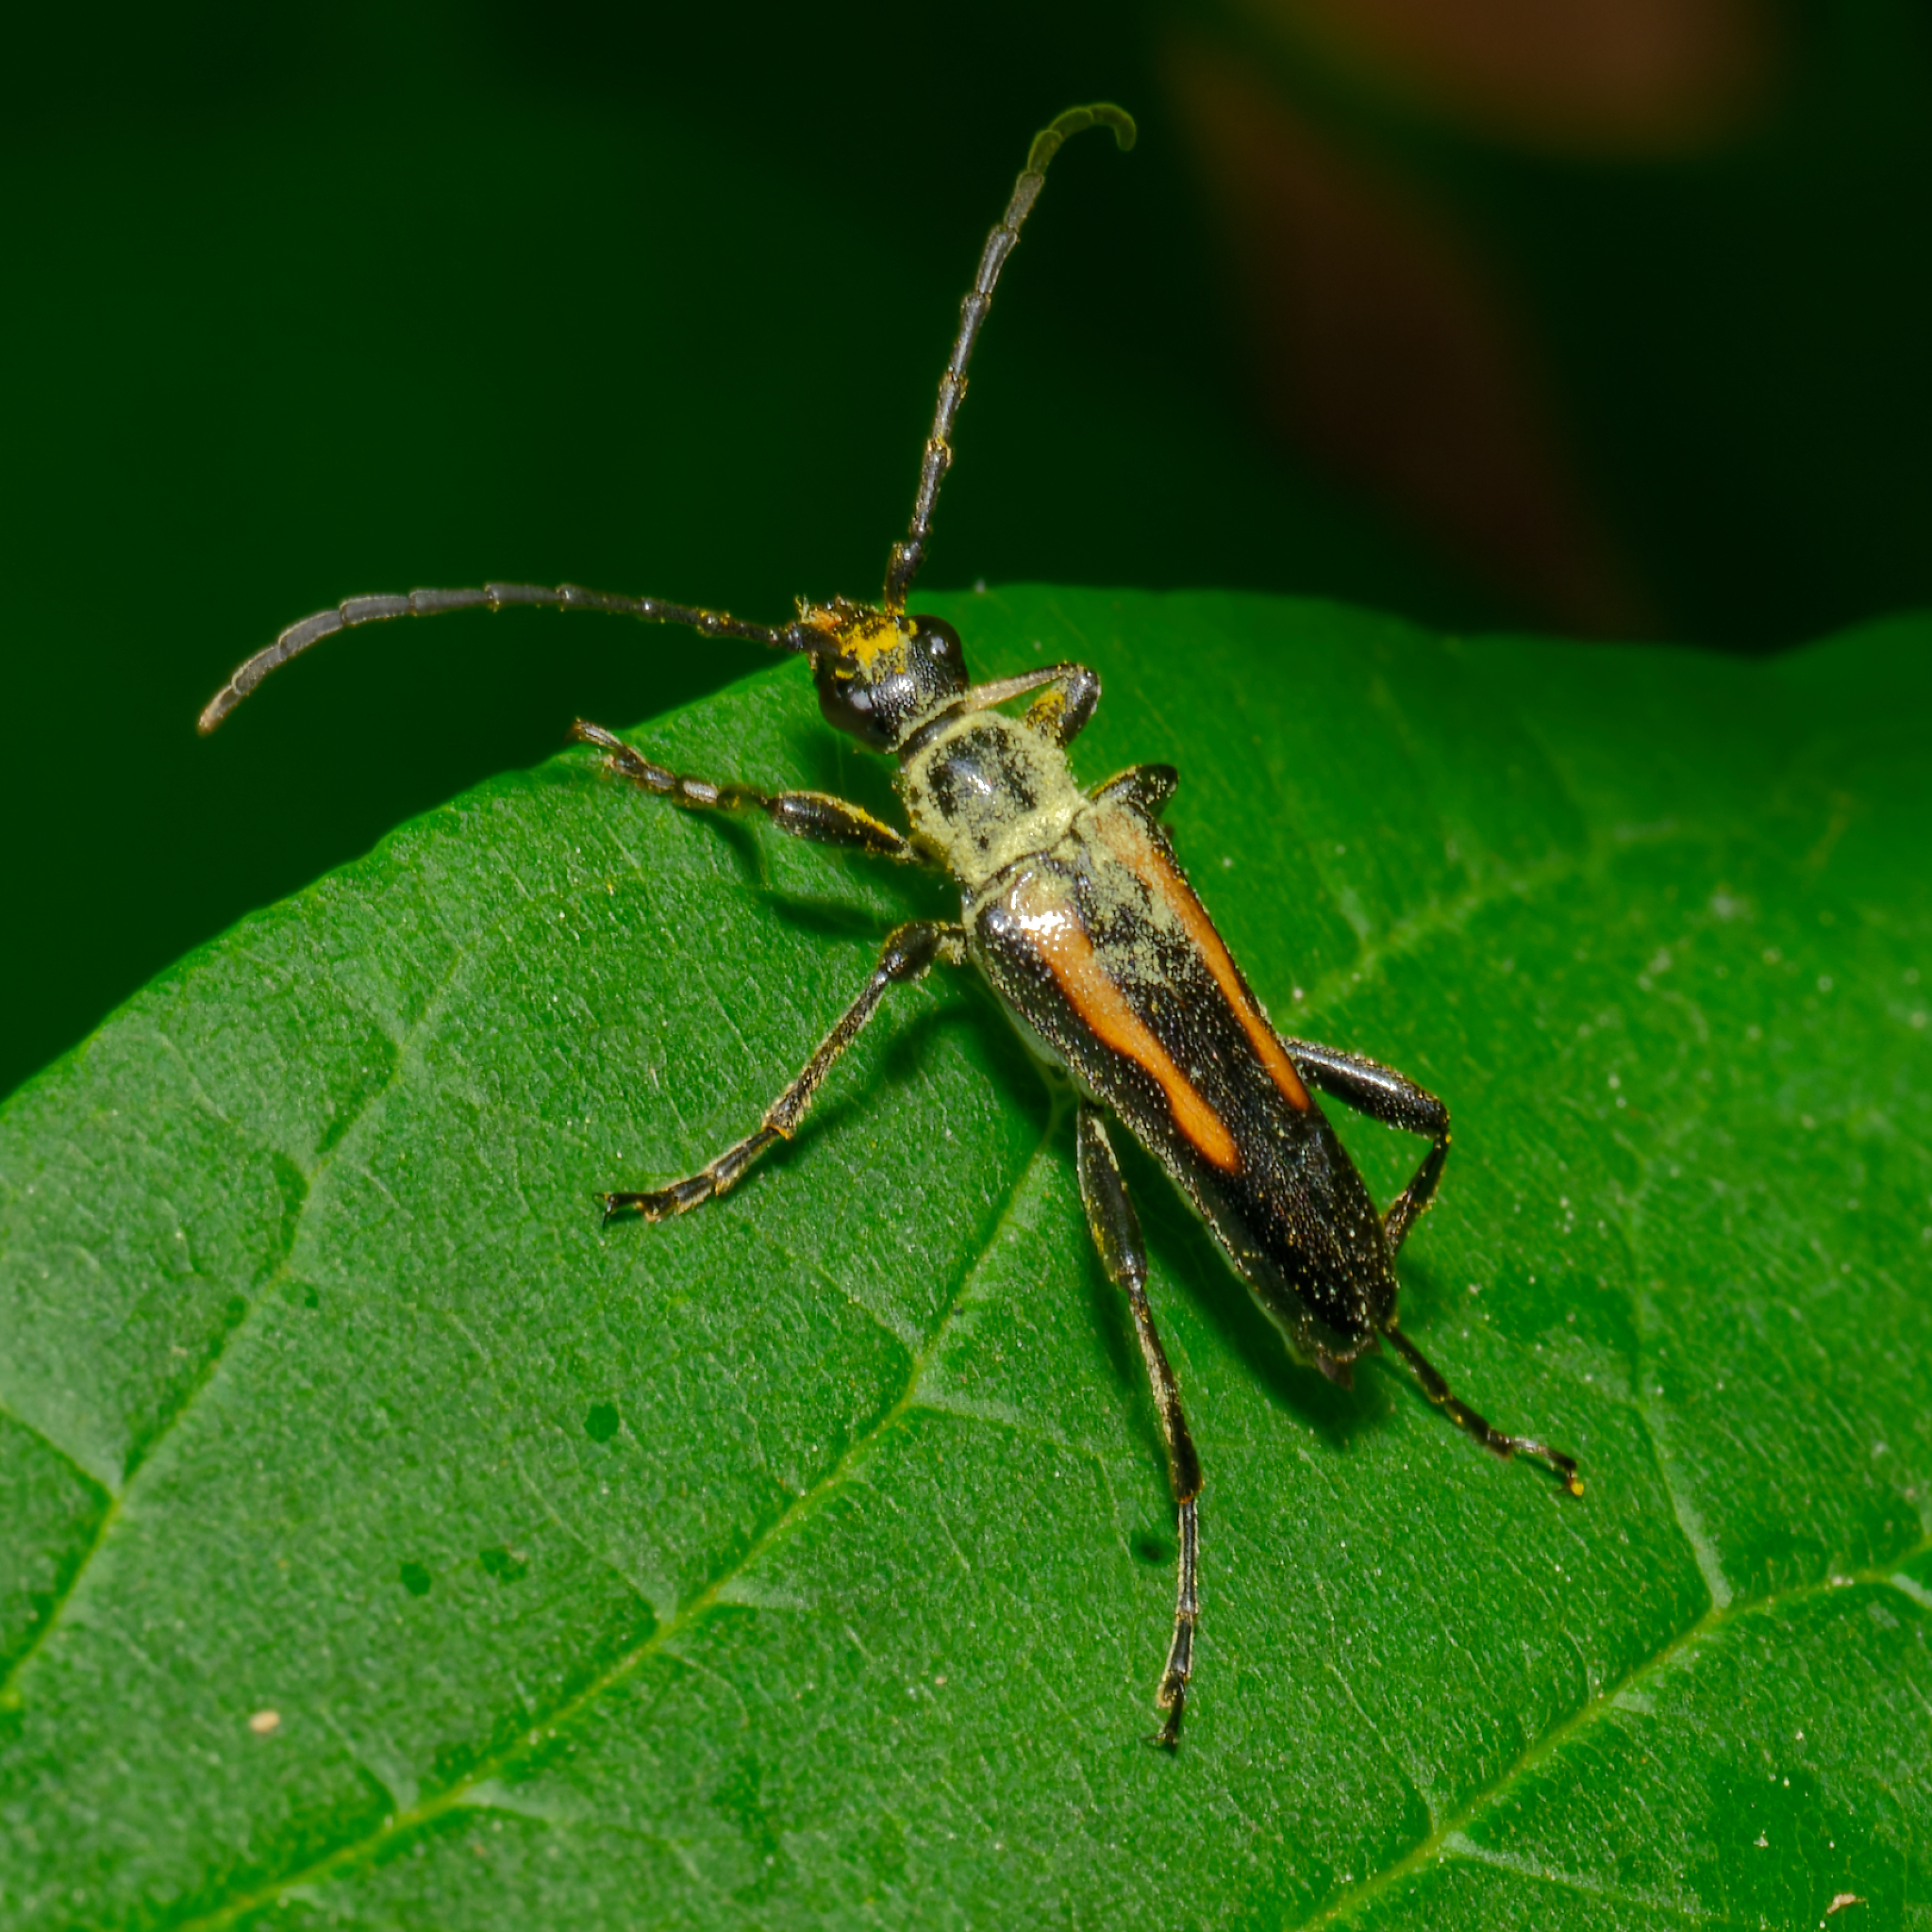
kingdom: Animalia
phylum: Arthropoda
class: Insecta
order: Coleoptera
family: Cerambycidae
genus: Strangalepta
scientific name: Strangalepta abbreviata
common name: Strangalepta flower longhorn beetle
